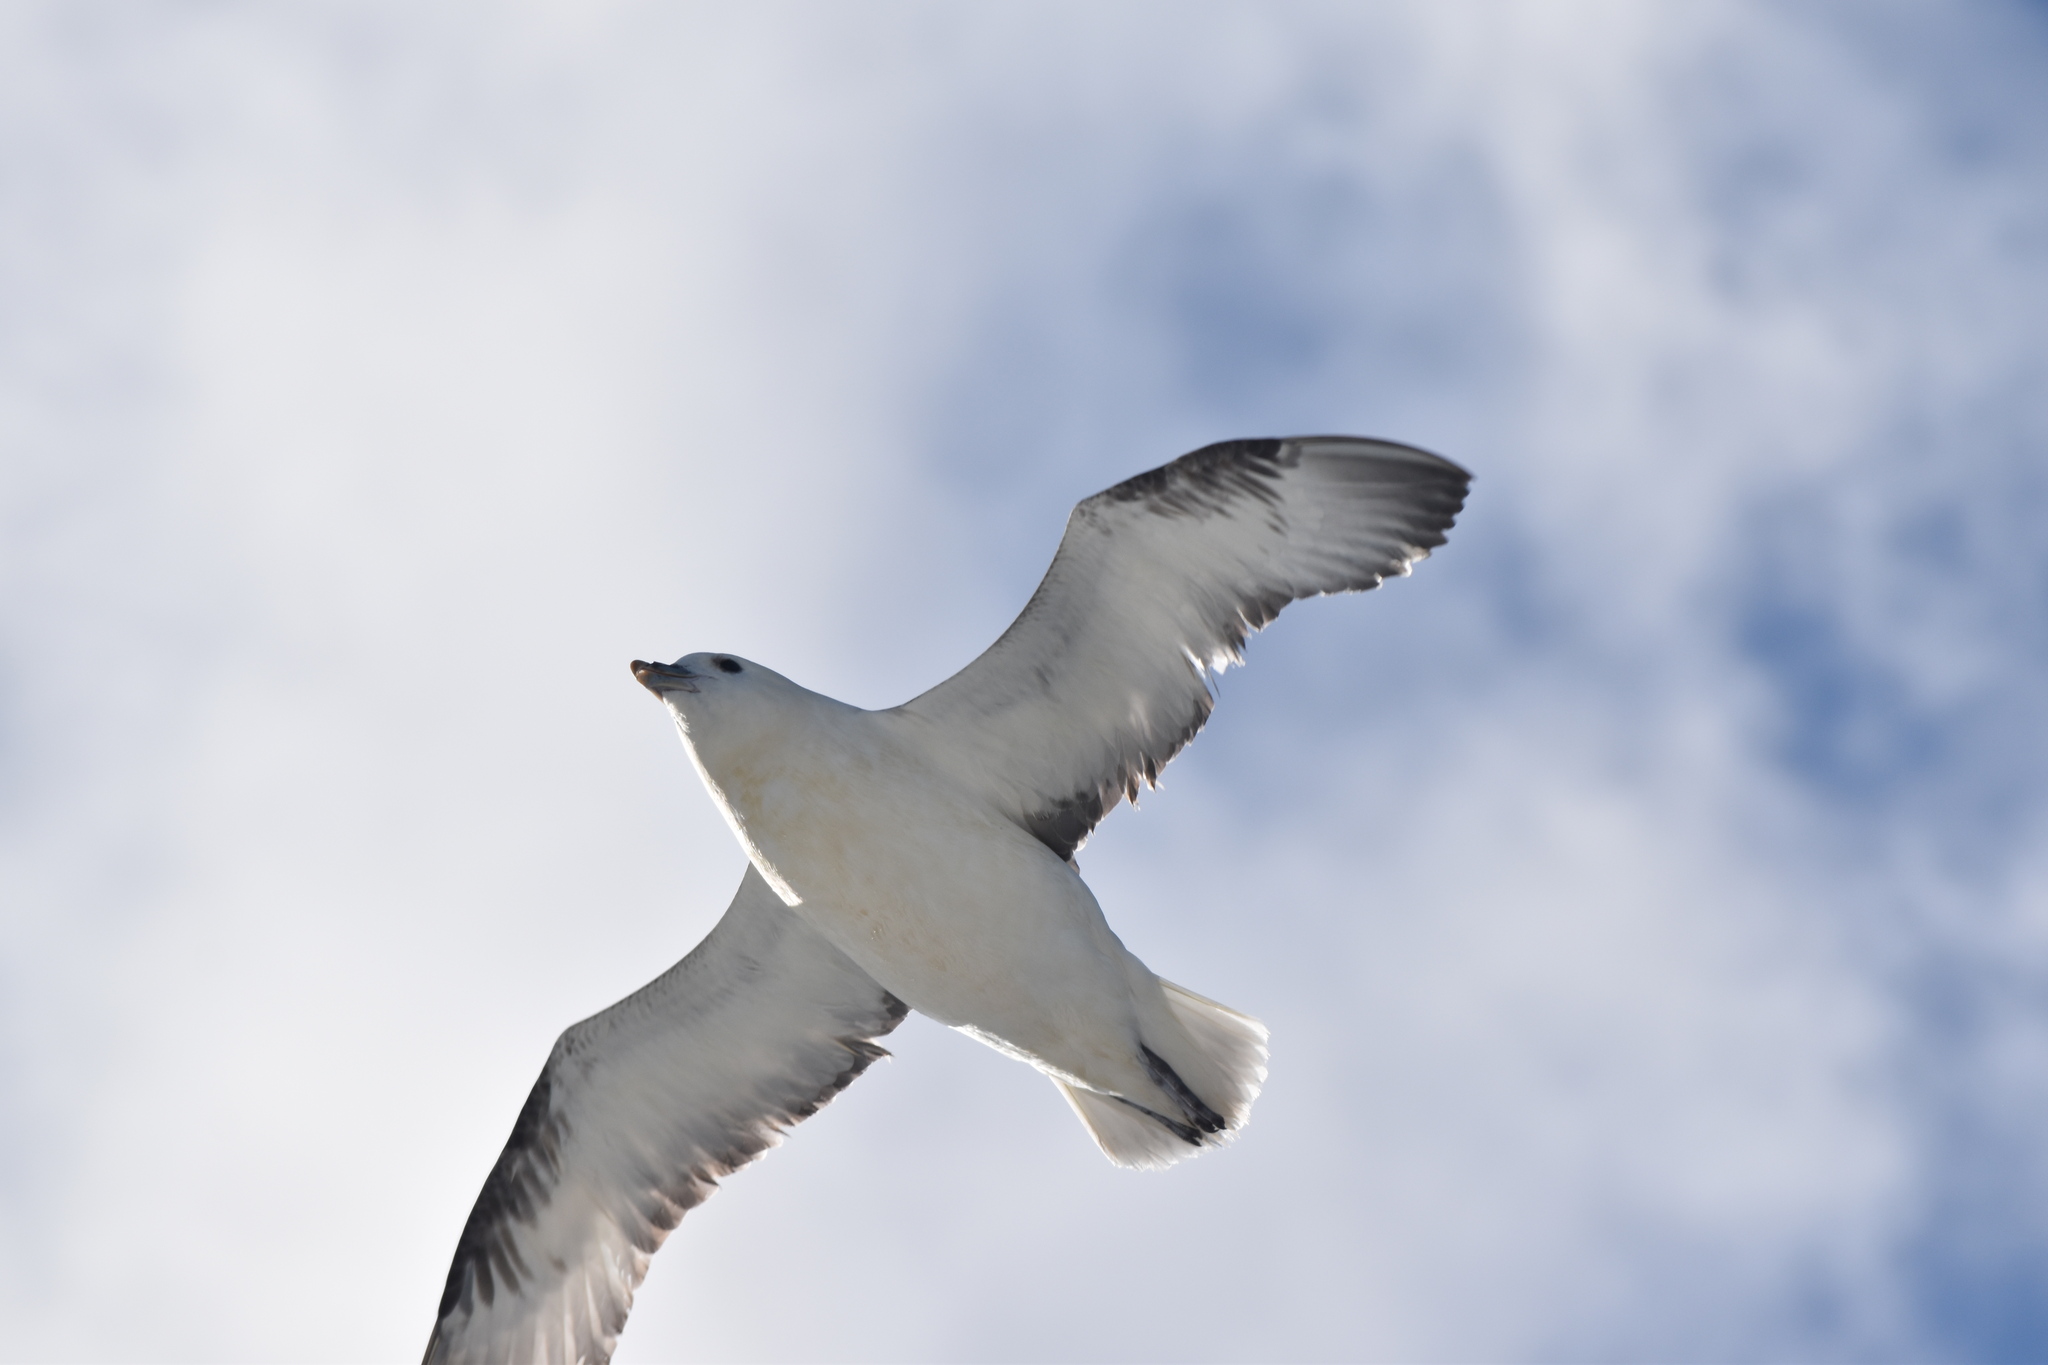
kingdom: Animalia
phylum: Chordata
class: Aves
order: Procellariiformes
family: Procellariidae
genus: Fulmarus
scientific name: Fulmarus glacialis
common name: Northern fulmar
